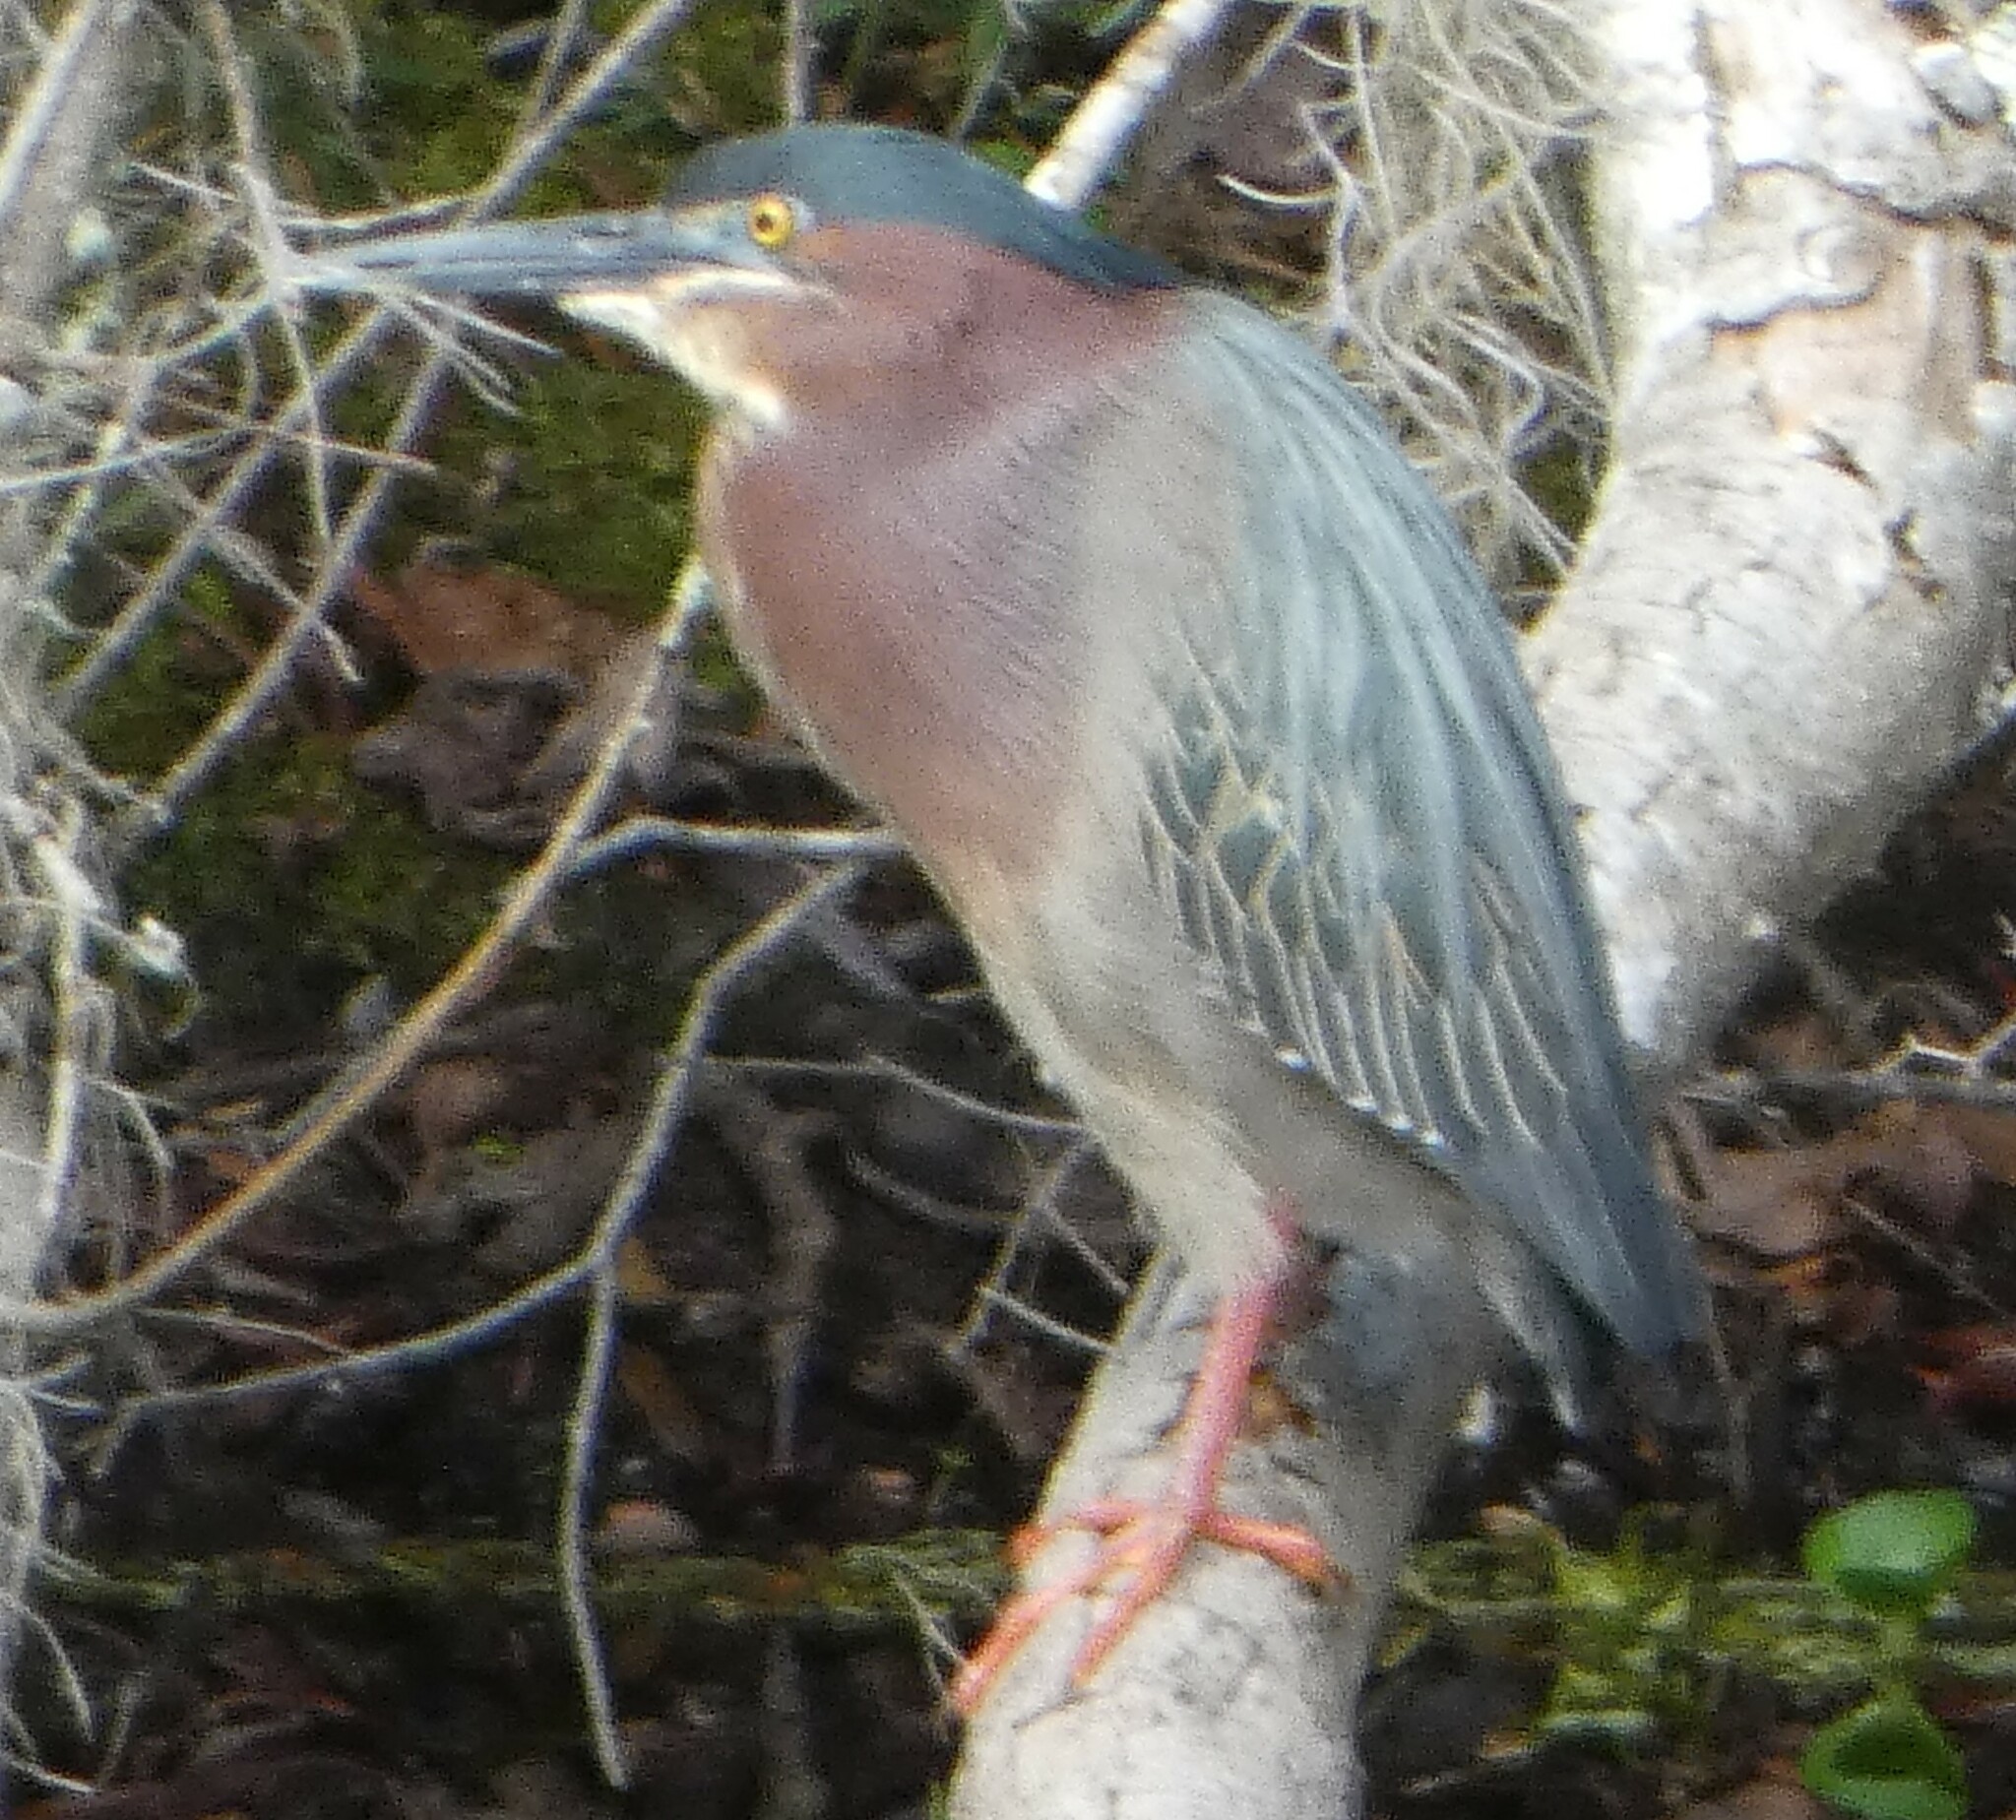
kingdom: Animalia
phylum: Chordata
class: Aves
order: Pelecaniformes
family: Ardeidae
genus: Butorides
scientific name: Butorides virescens
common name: Green heron
